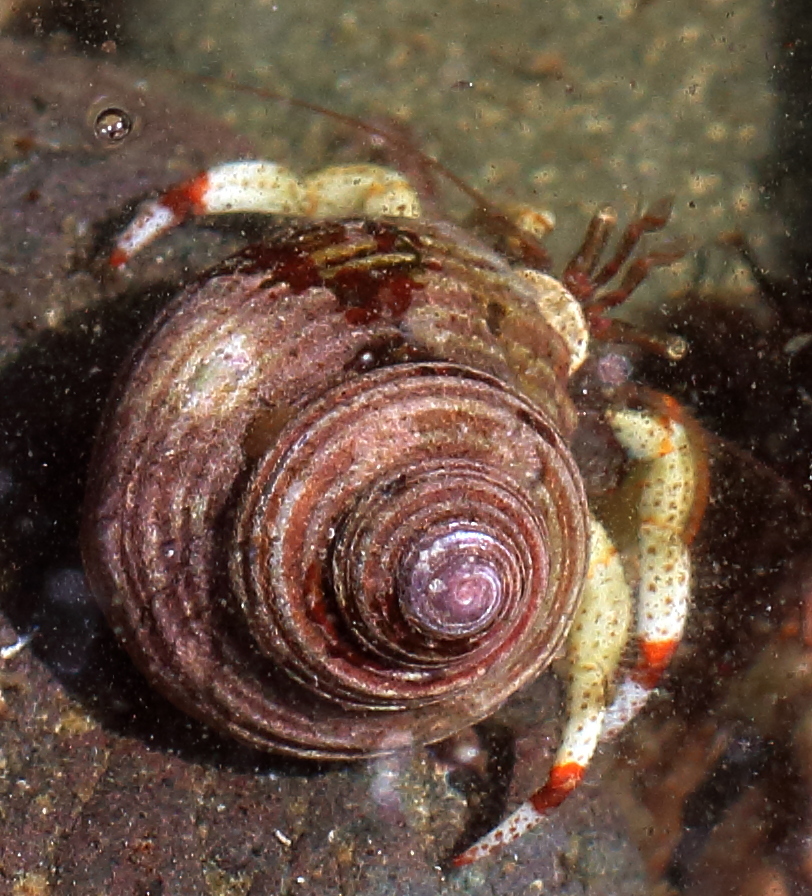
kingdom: Animalia
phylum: Arthropoda
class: Malacostraca
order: Decapoda
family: Paguridae
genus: Pagurus
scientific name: Pagurus beringanus
